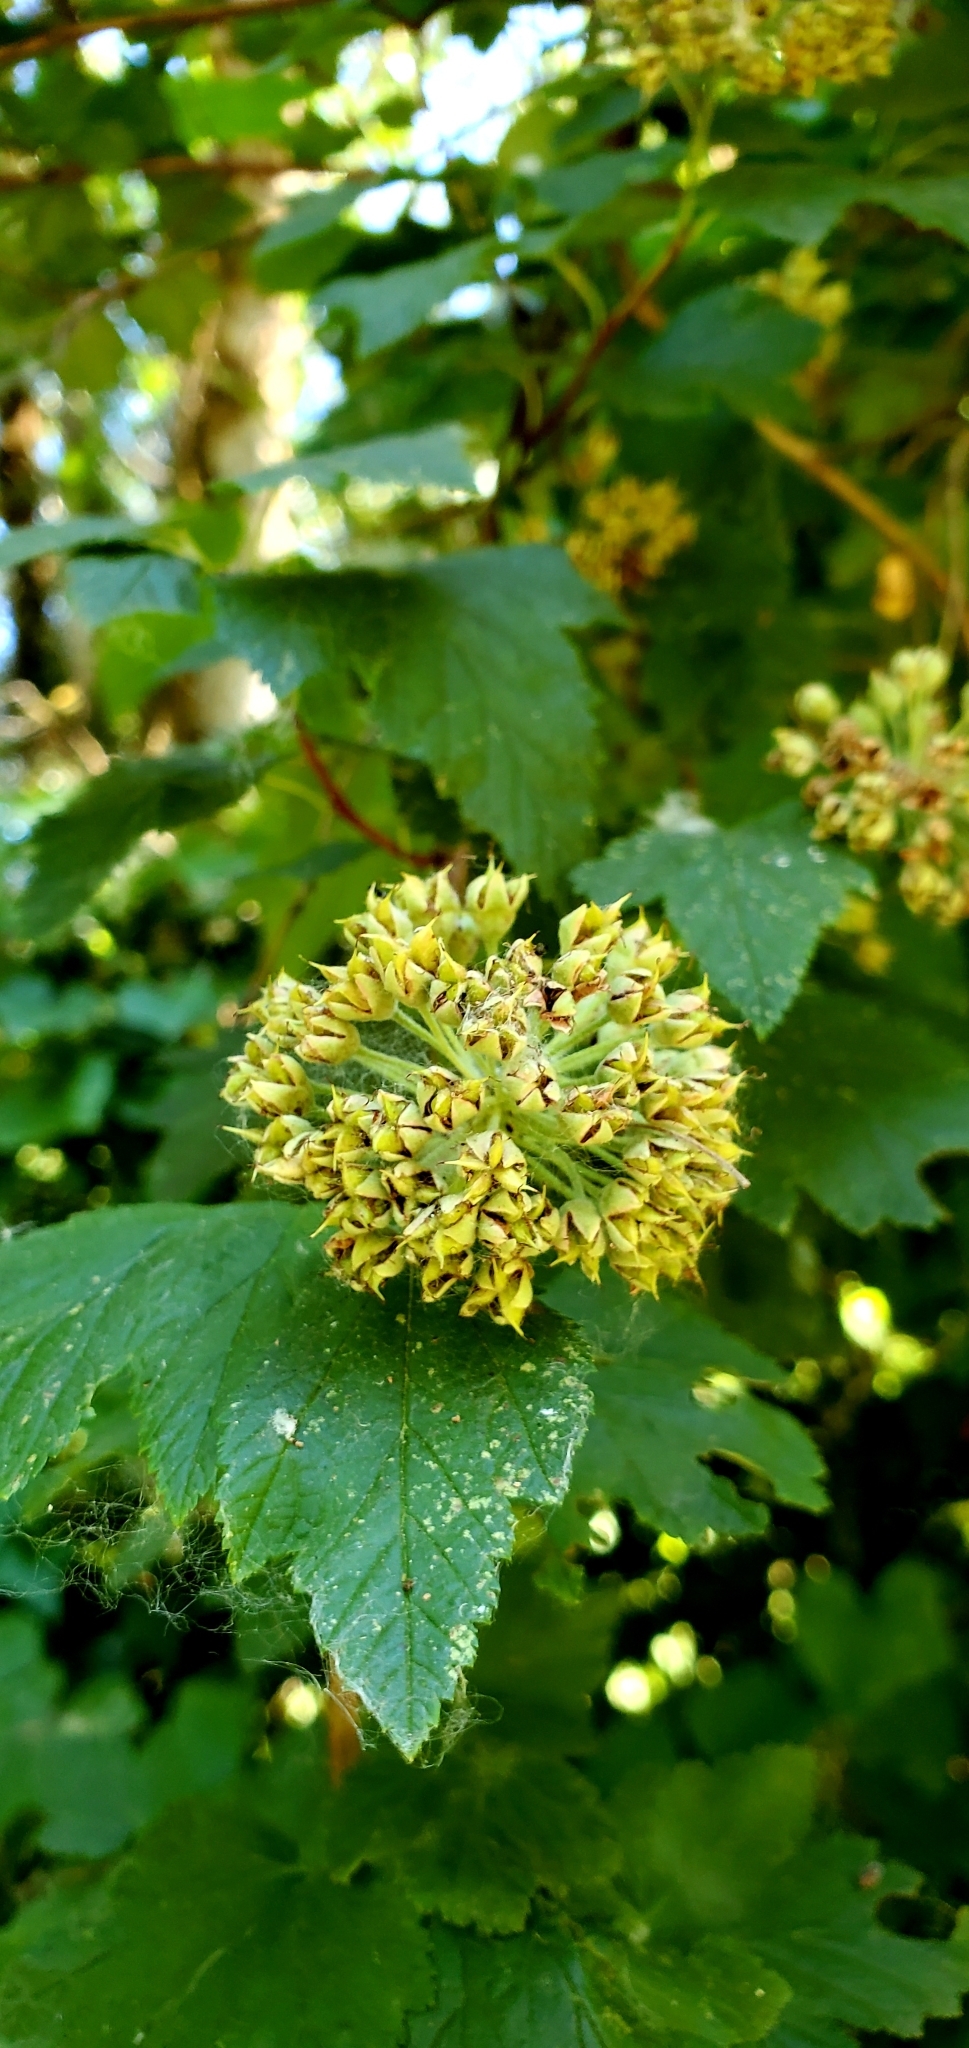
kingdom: Plantae
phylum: Tracheophyta
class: Magnoliopsida
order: Rosales
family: Rosaceae
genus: Physocarpus
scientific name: Physocarpus capitatus
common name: Pacific ninebark
